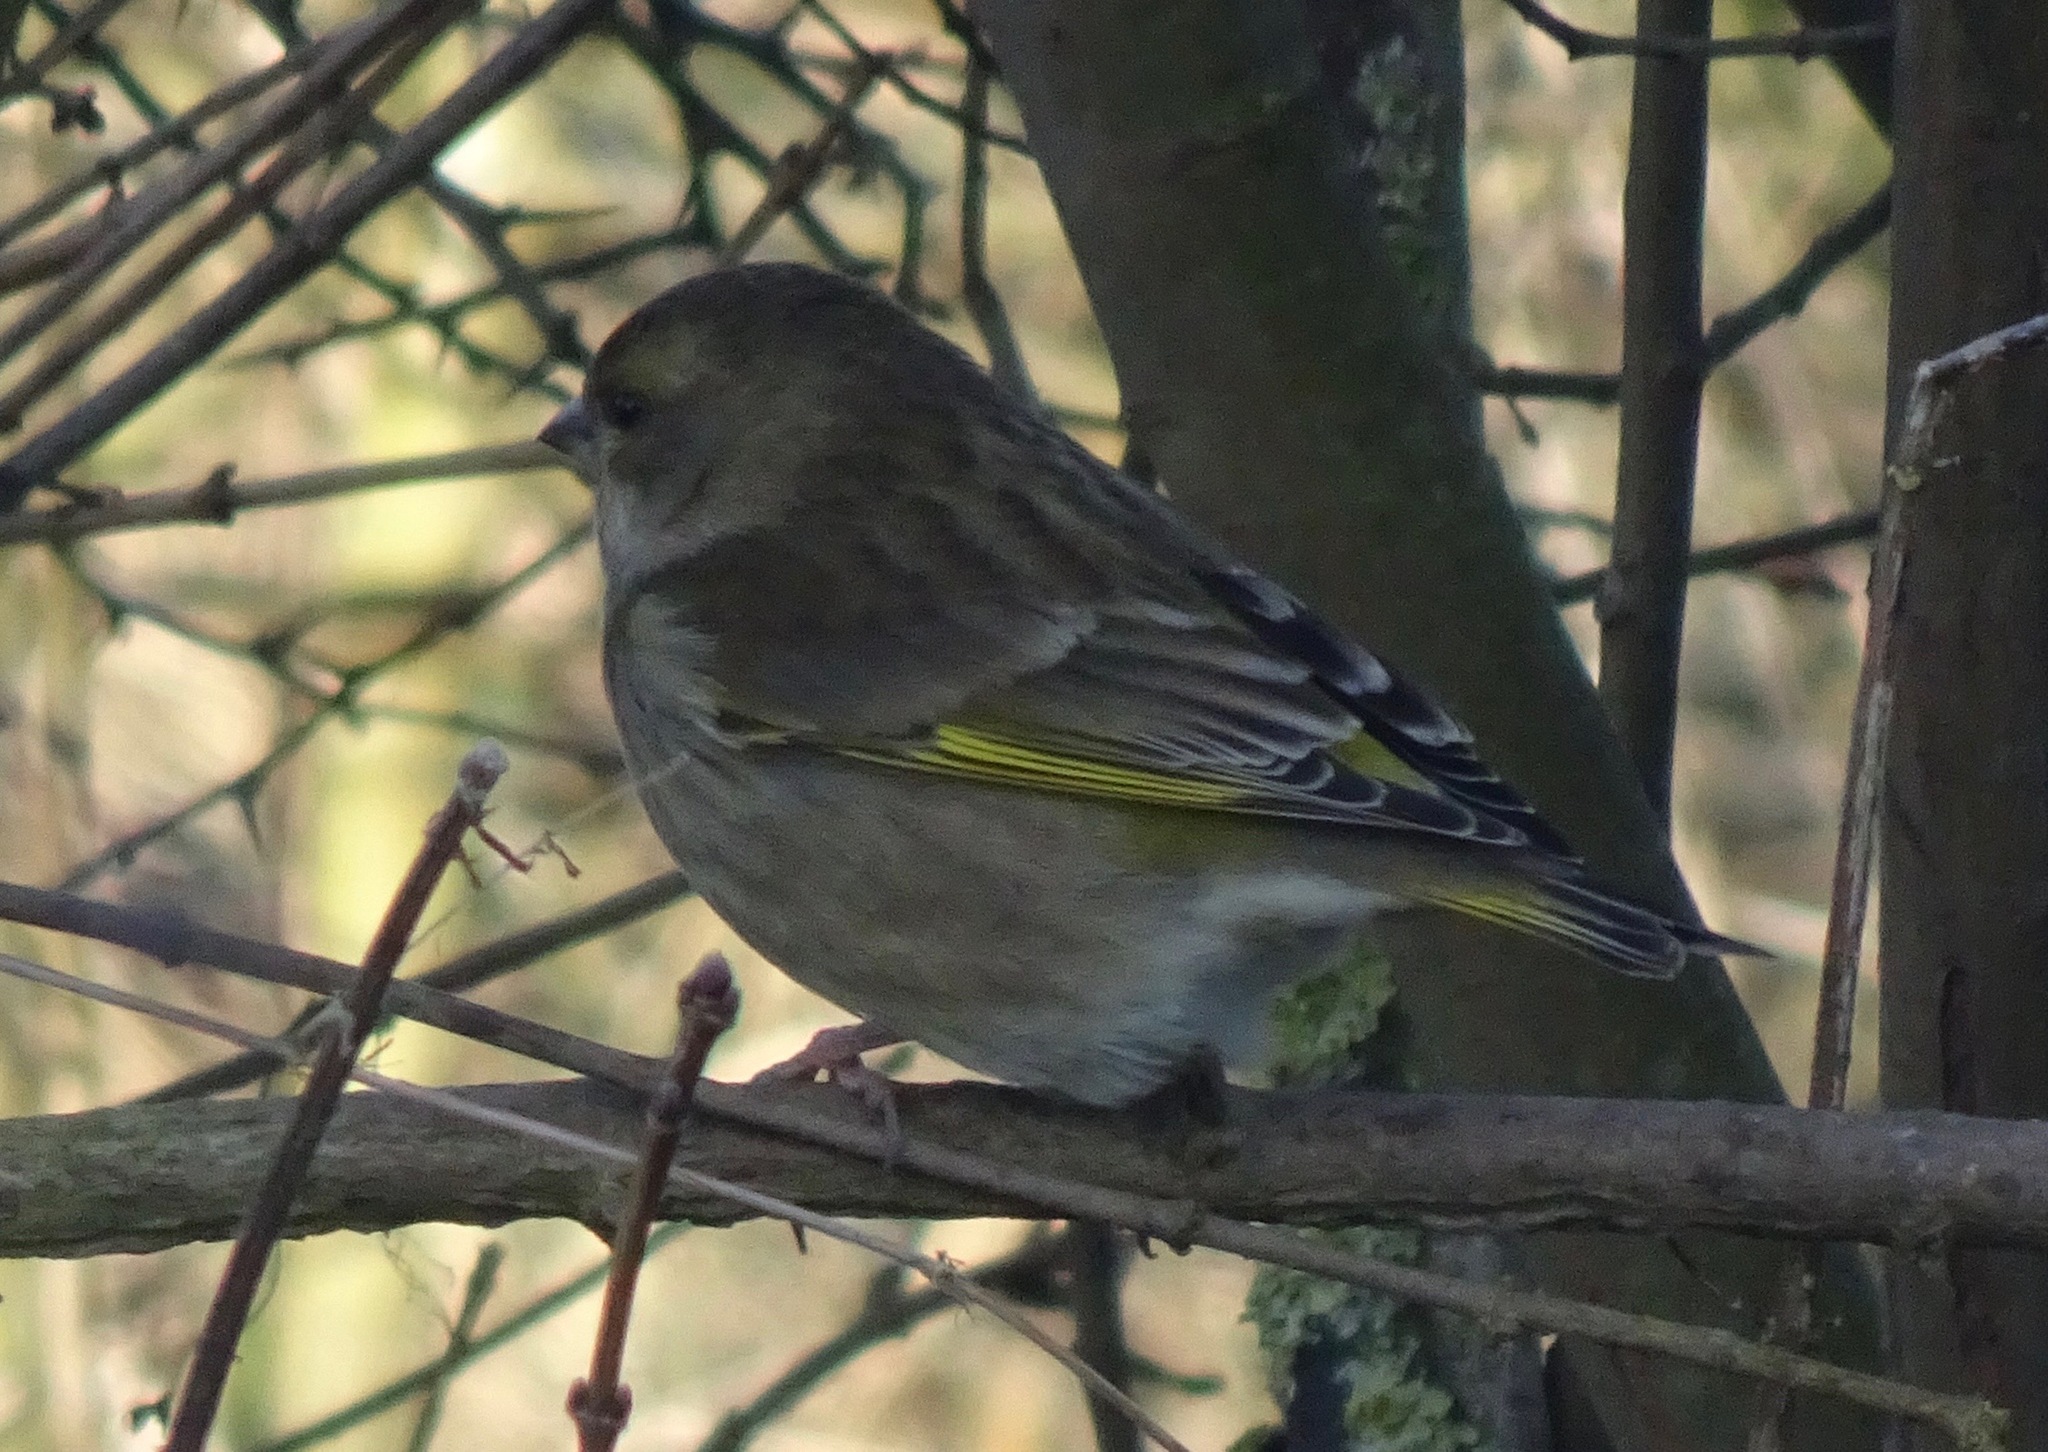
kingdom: Plantae
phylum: Tracheophyta
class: Liliopsida
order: Poales
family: Poaceae
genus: Chloris
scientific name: Chloris chloris
